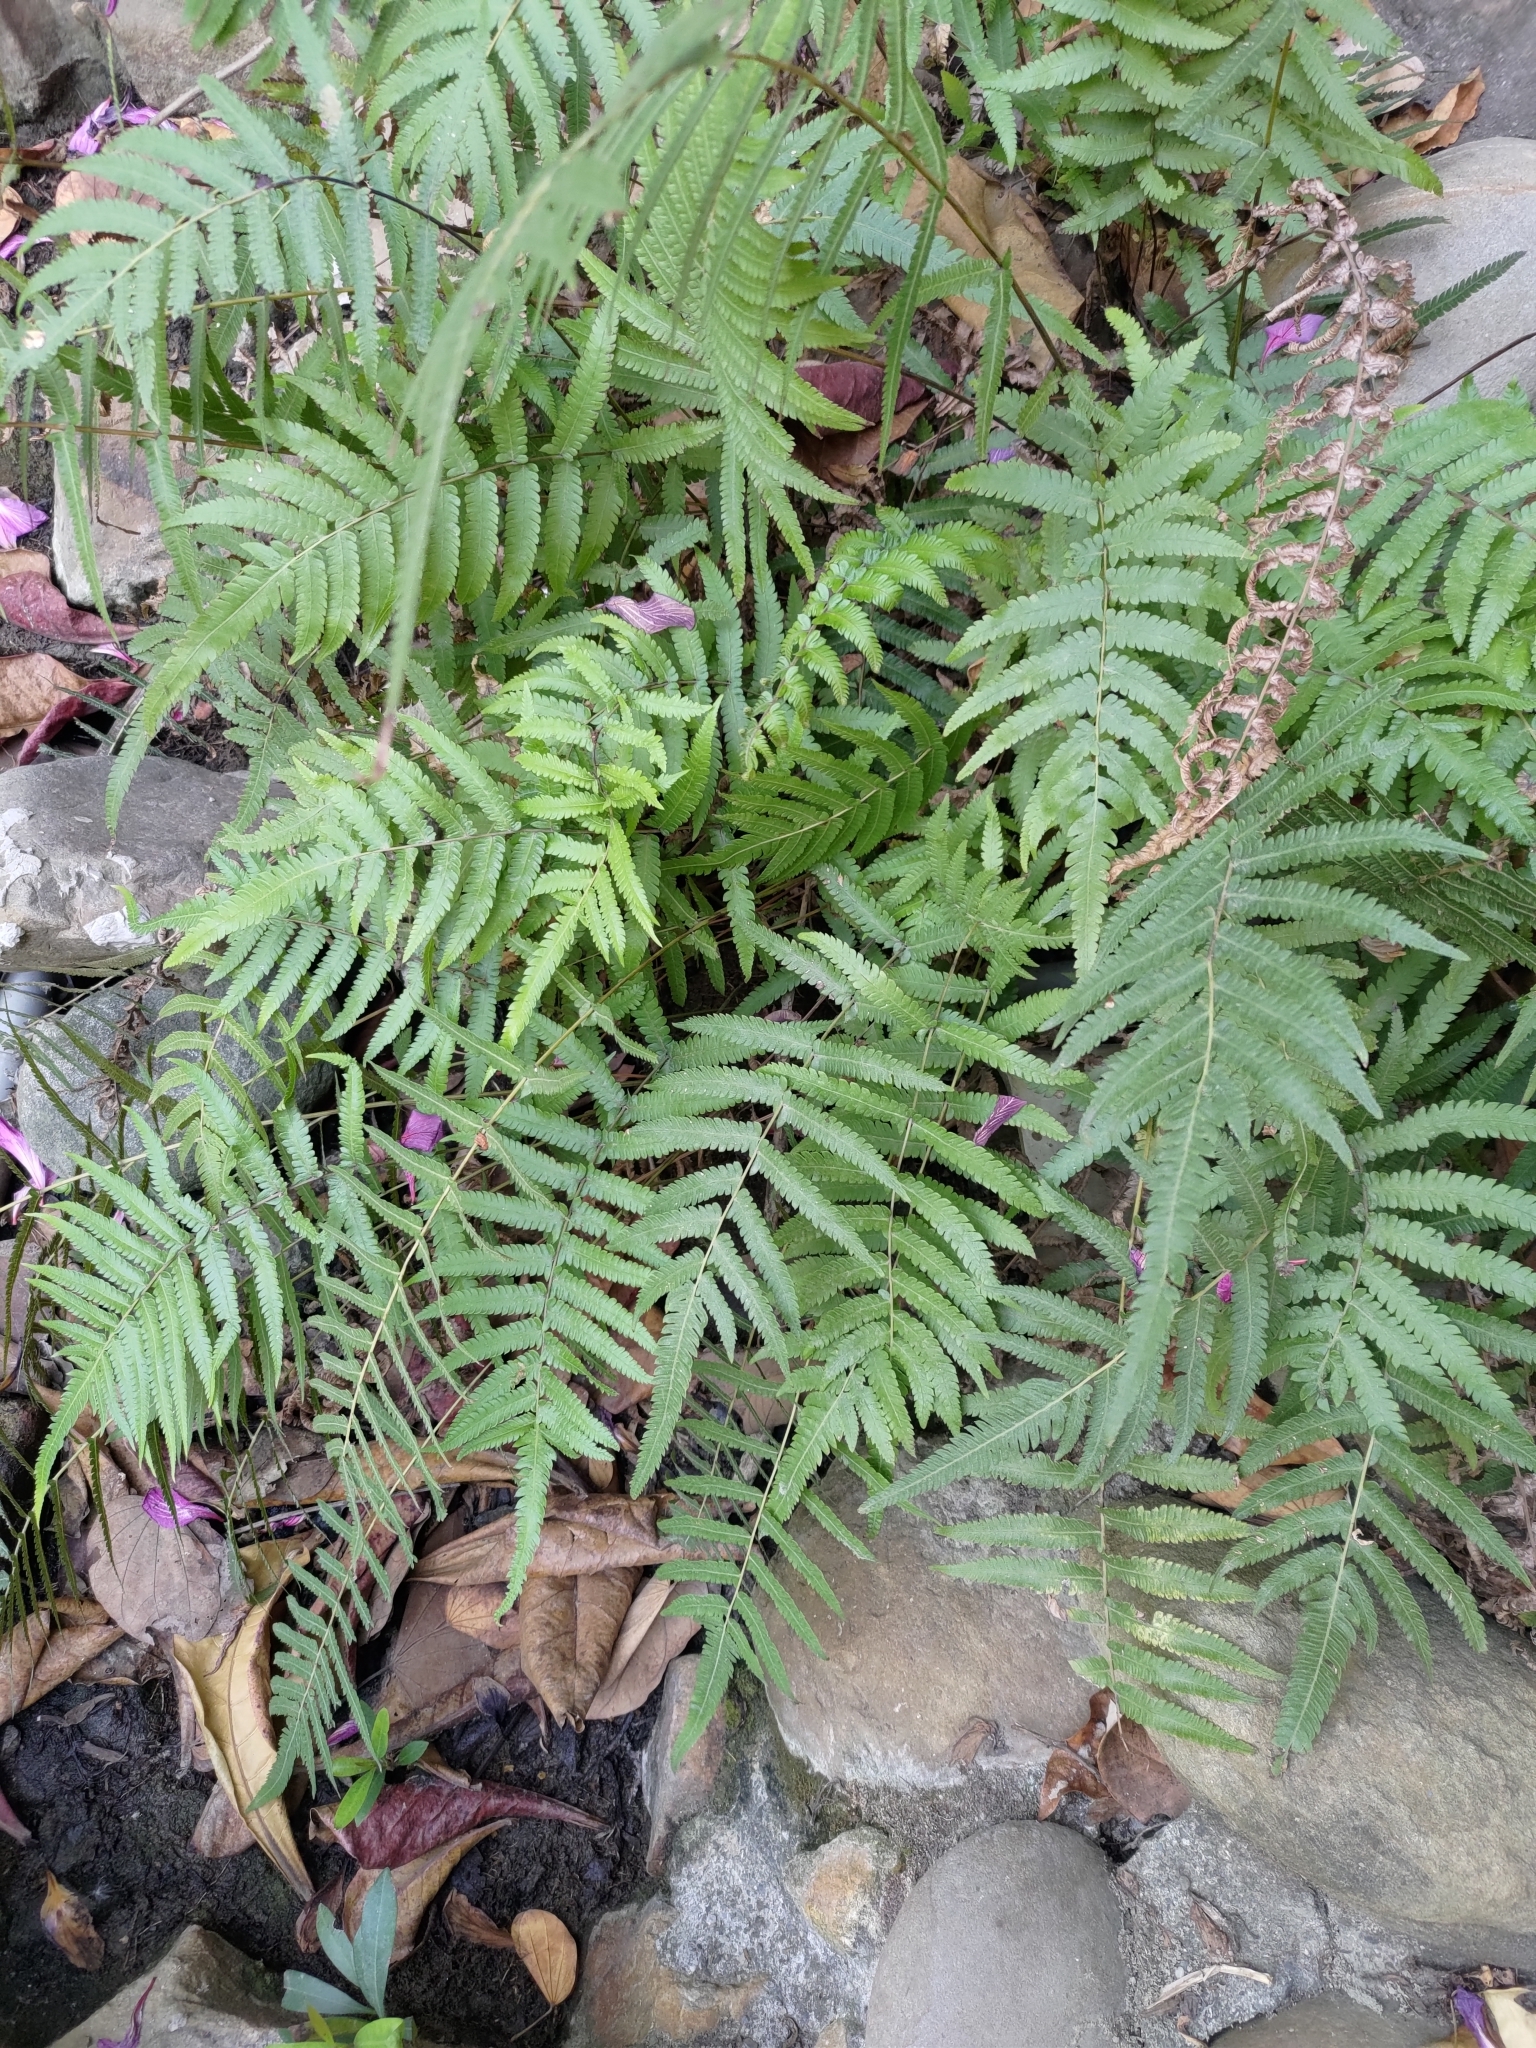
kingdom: Plantae
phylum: Tracheophyta
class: Polypodiopsida
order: Polypodiales
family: Thelypteridaceae
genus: Christella
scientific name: Christella acuminata
